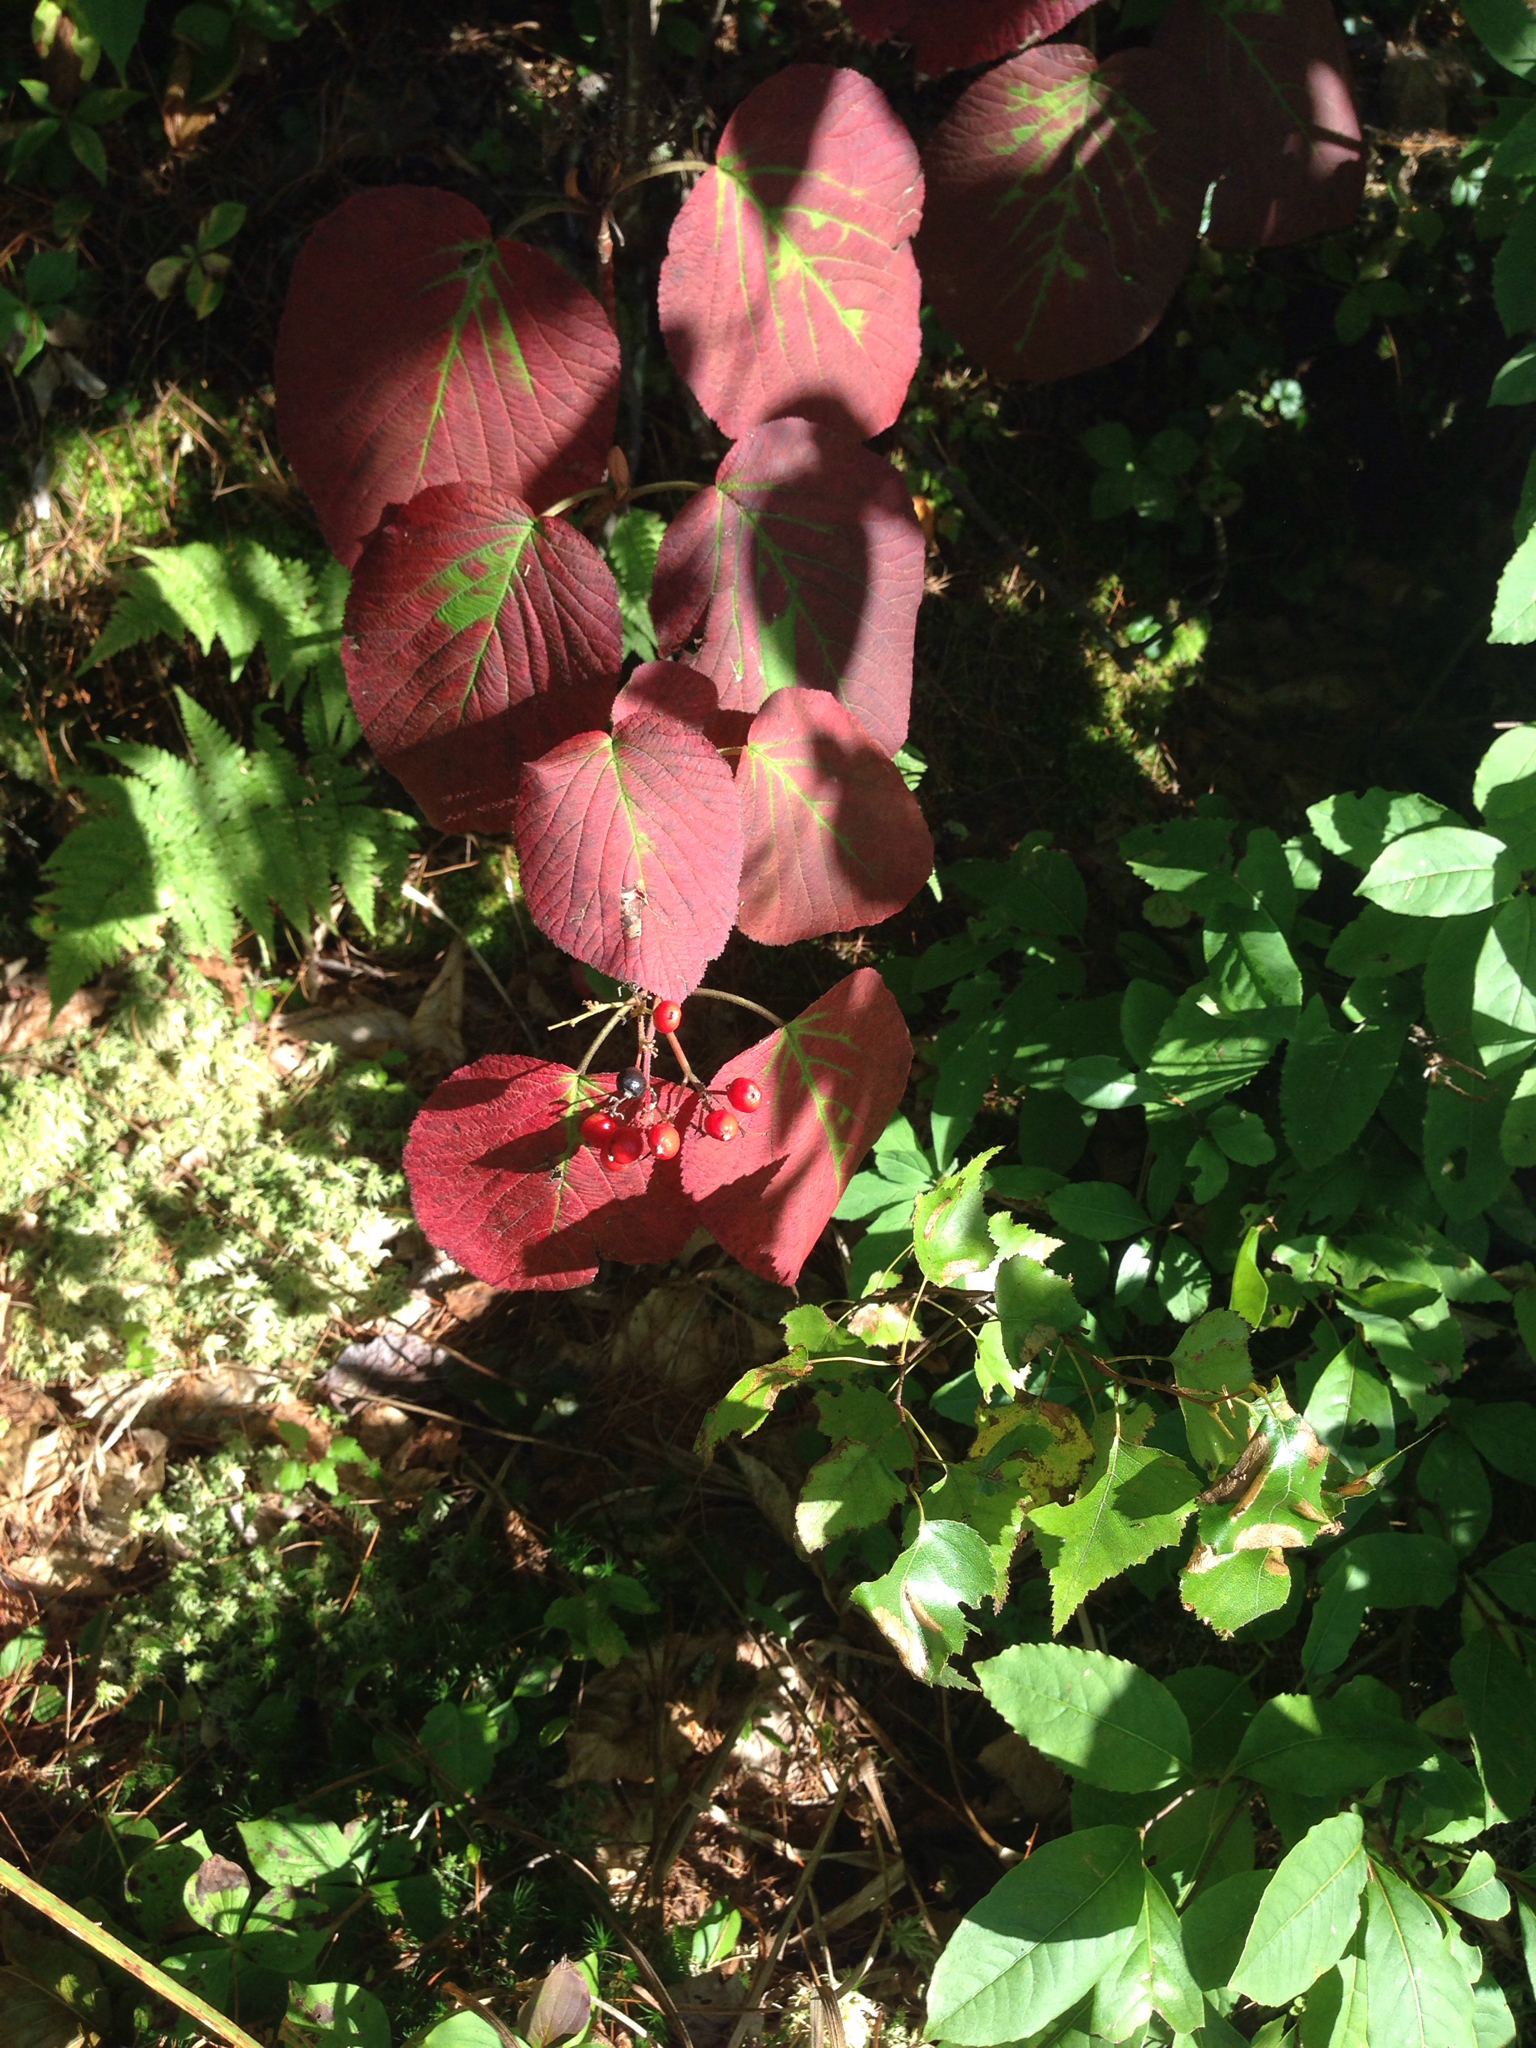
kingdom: Plantae
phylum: Tracheophyta
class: Magnoliopsida
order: Dipsacales
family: Viburnaceae
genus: Viburnum
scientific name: Viburnum lantanoides
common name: Hobblebush
